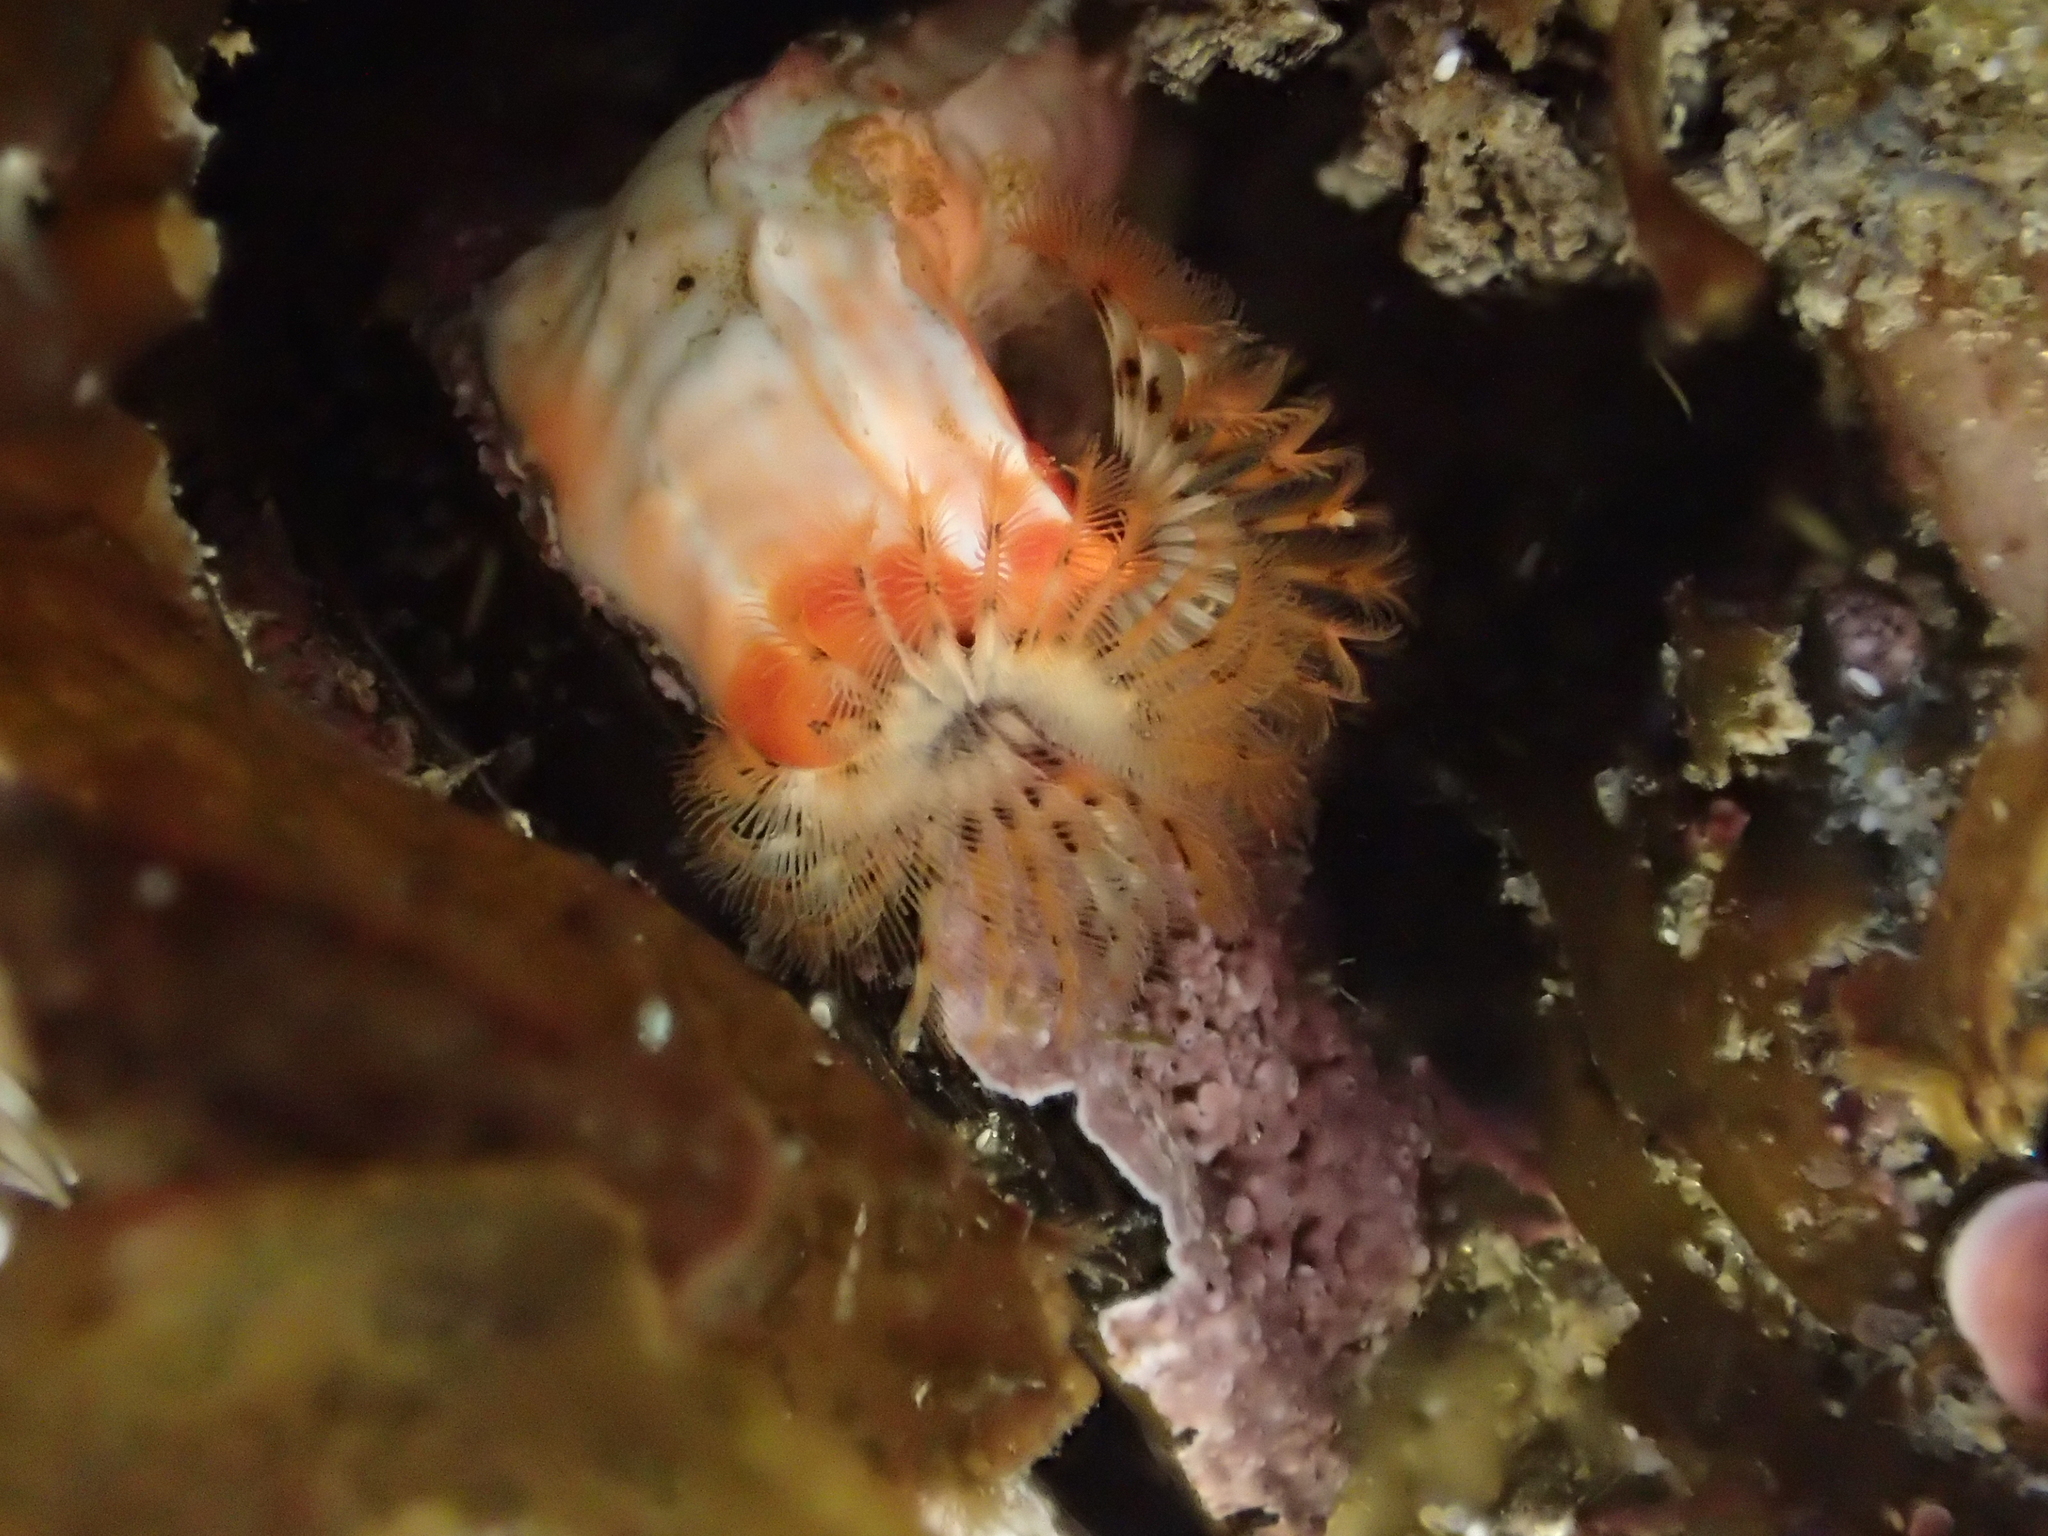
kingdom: Animalia
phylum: Annelida
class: Polychaeta
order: Sabellida
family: Serpulidae
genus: Galeolaria
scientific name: Galeolaria hystrix
